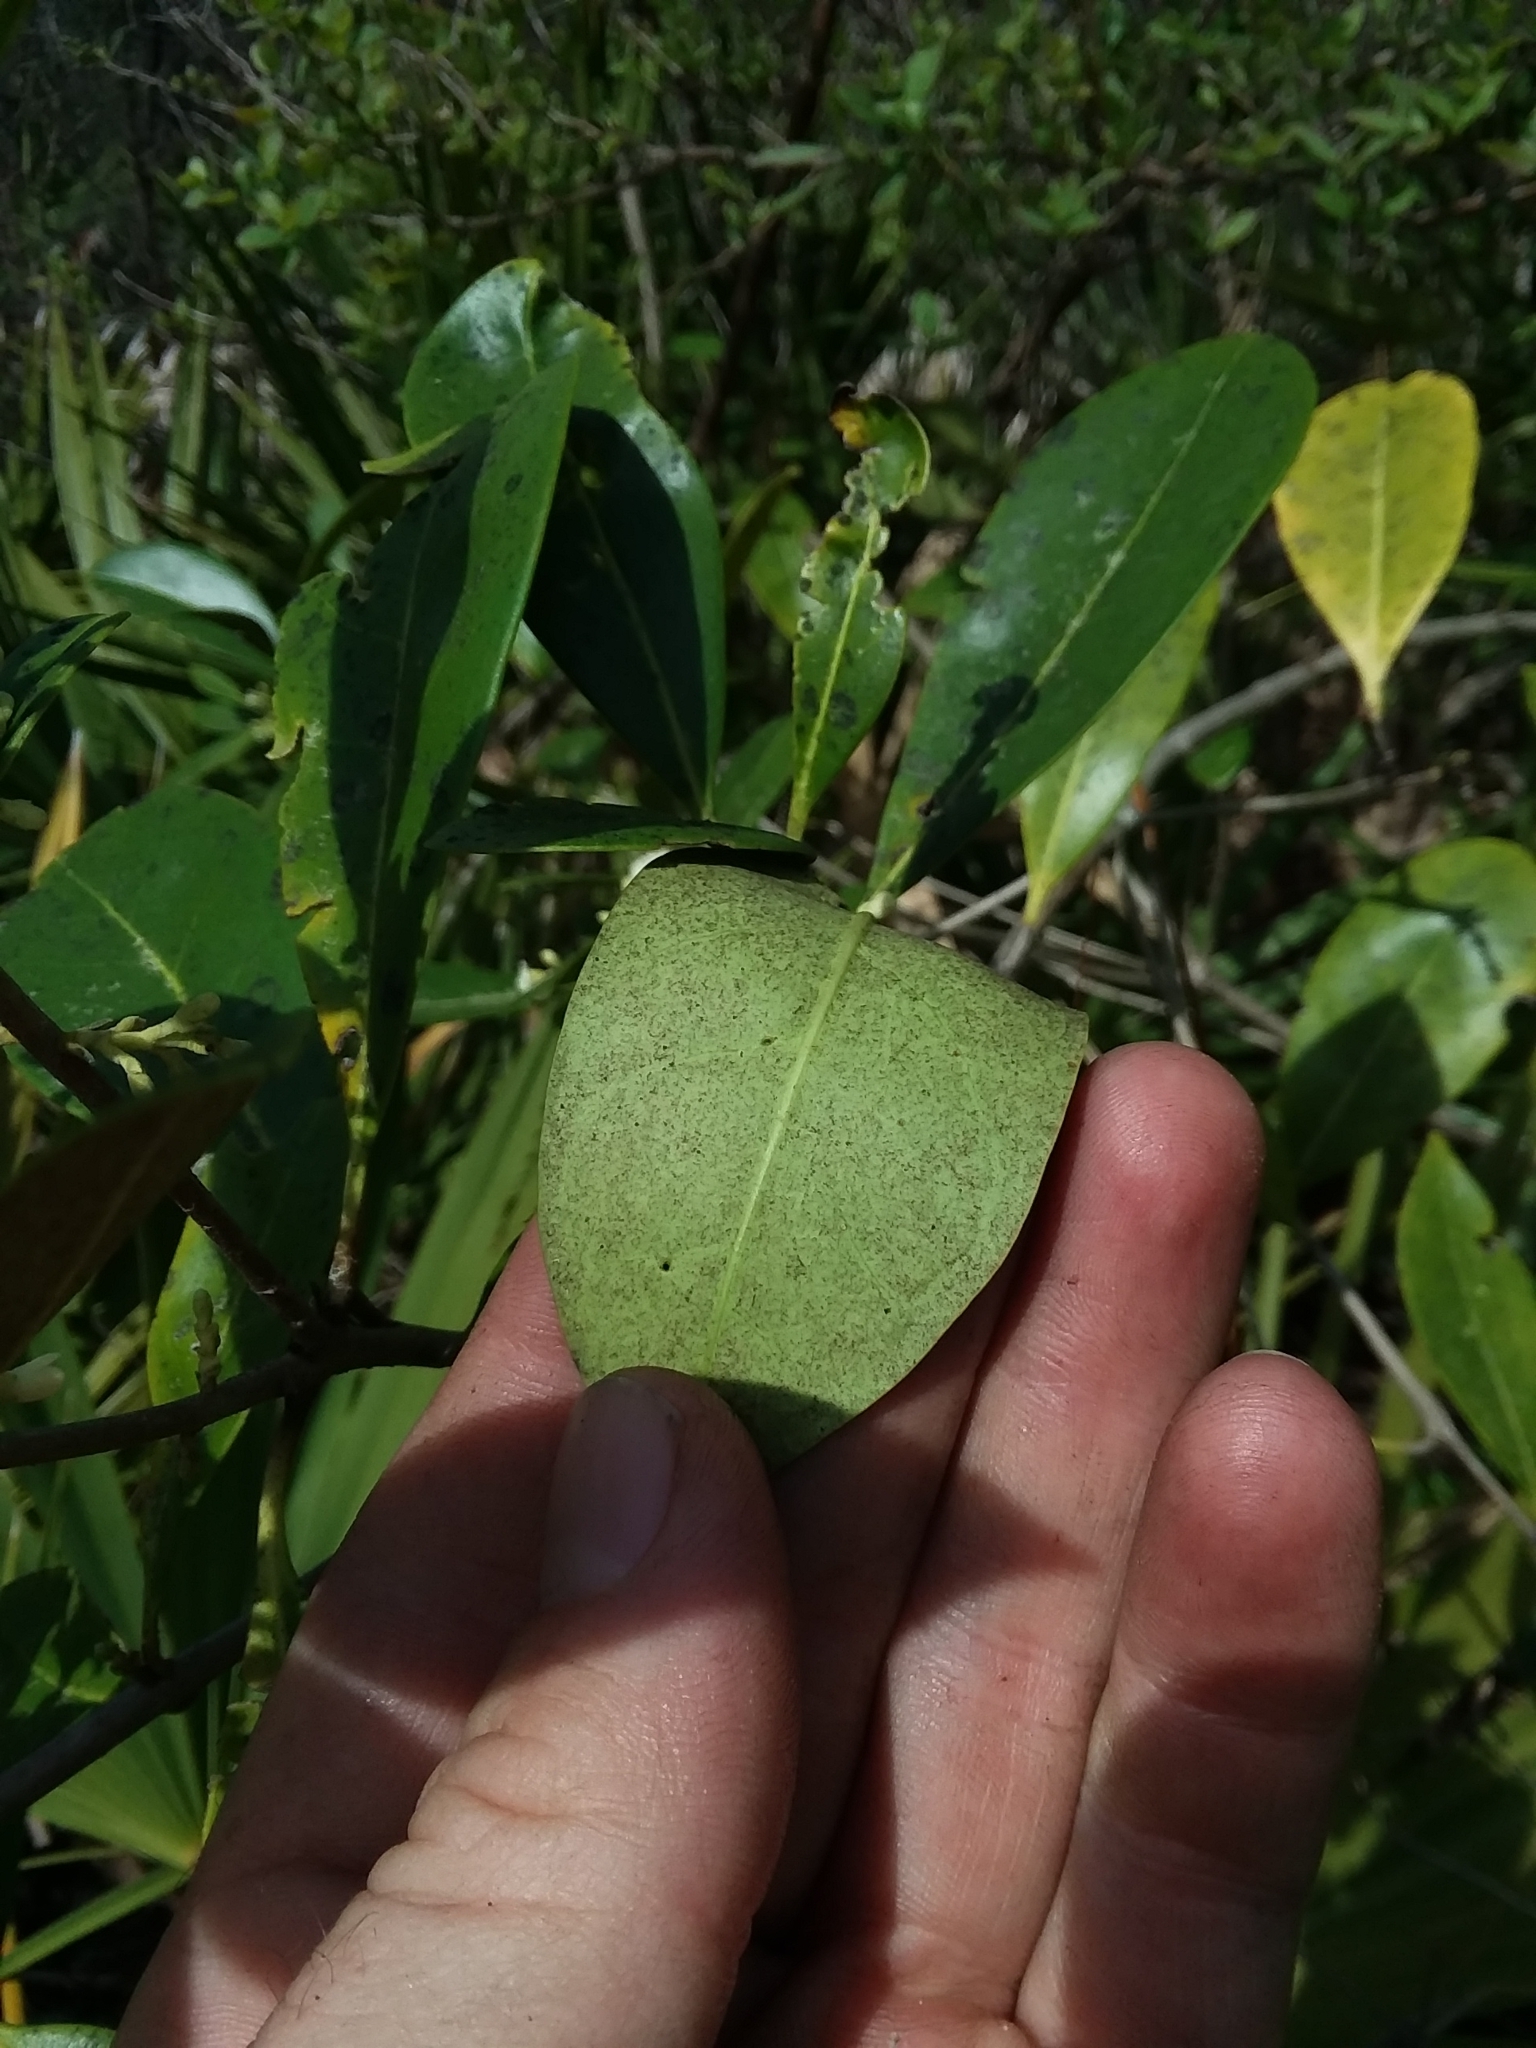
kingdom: Plantae
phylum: Tracheophyta
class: Magnoliopsida
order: Lamiales
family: Oleaceae
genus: Cartrema
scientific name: Cartrema americana
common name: Devilwood
